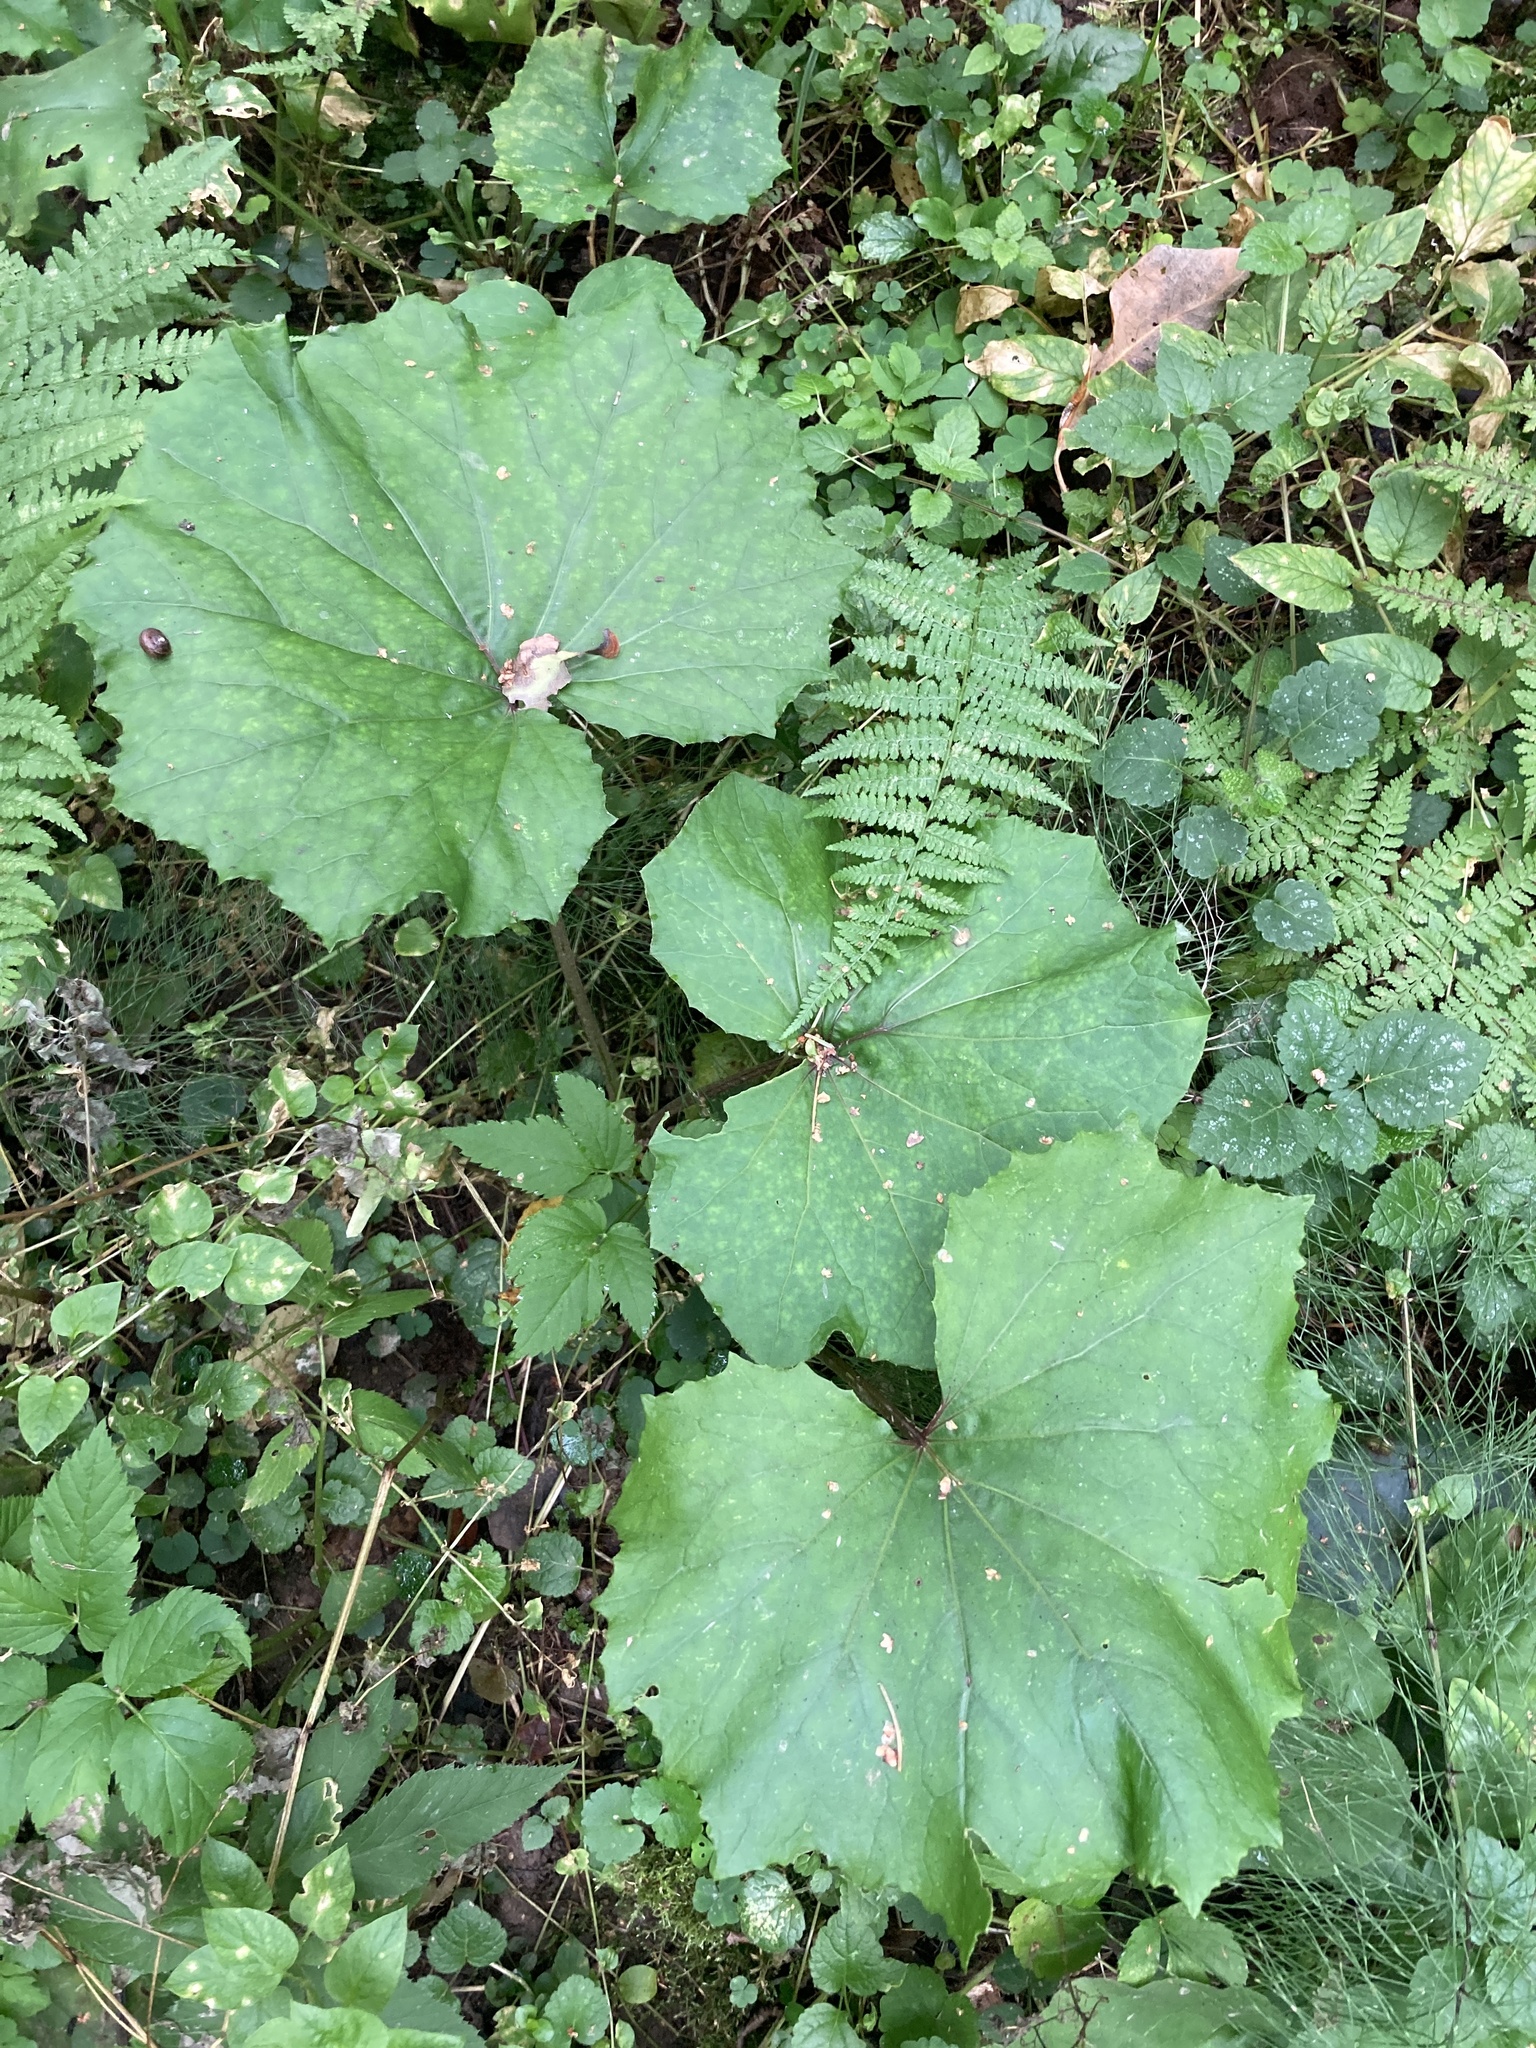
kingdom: Plantae
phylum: Tracheophyta
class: Magnoliopsida
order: Asterales
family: Asteraceae
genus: Tussilago
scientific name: Tussilago farfara
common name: Coltsfoot
